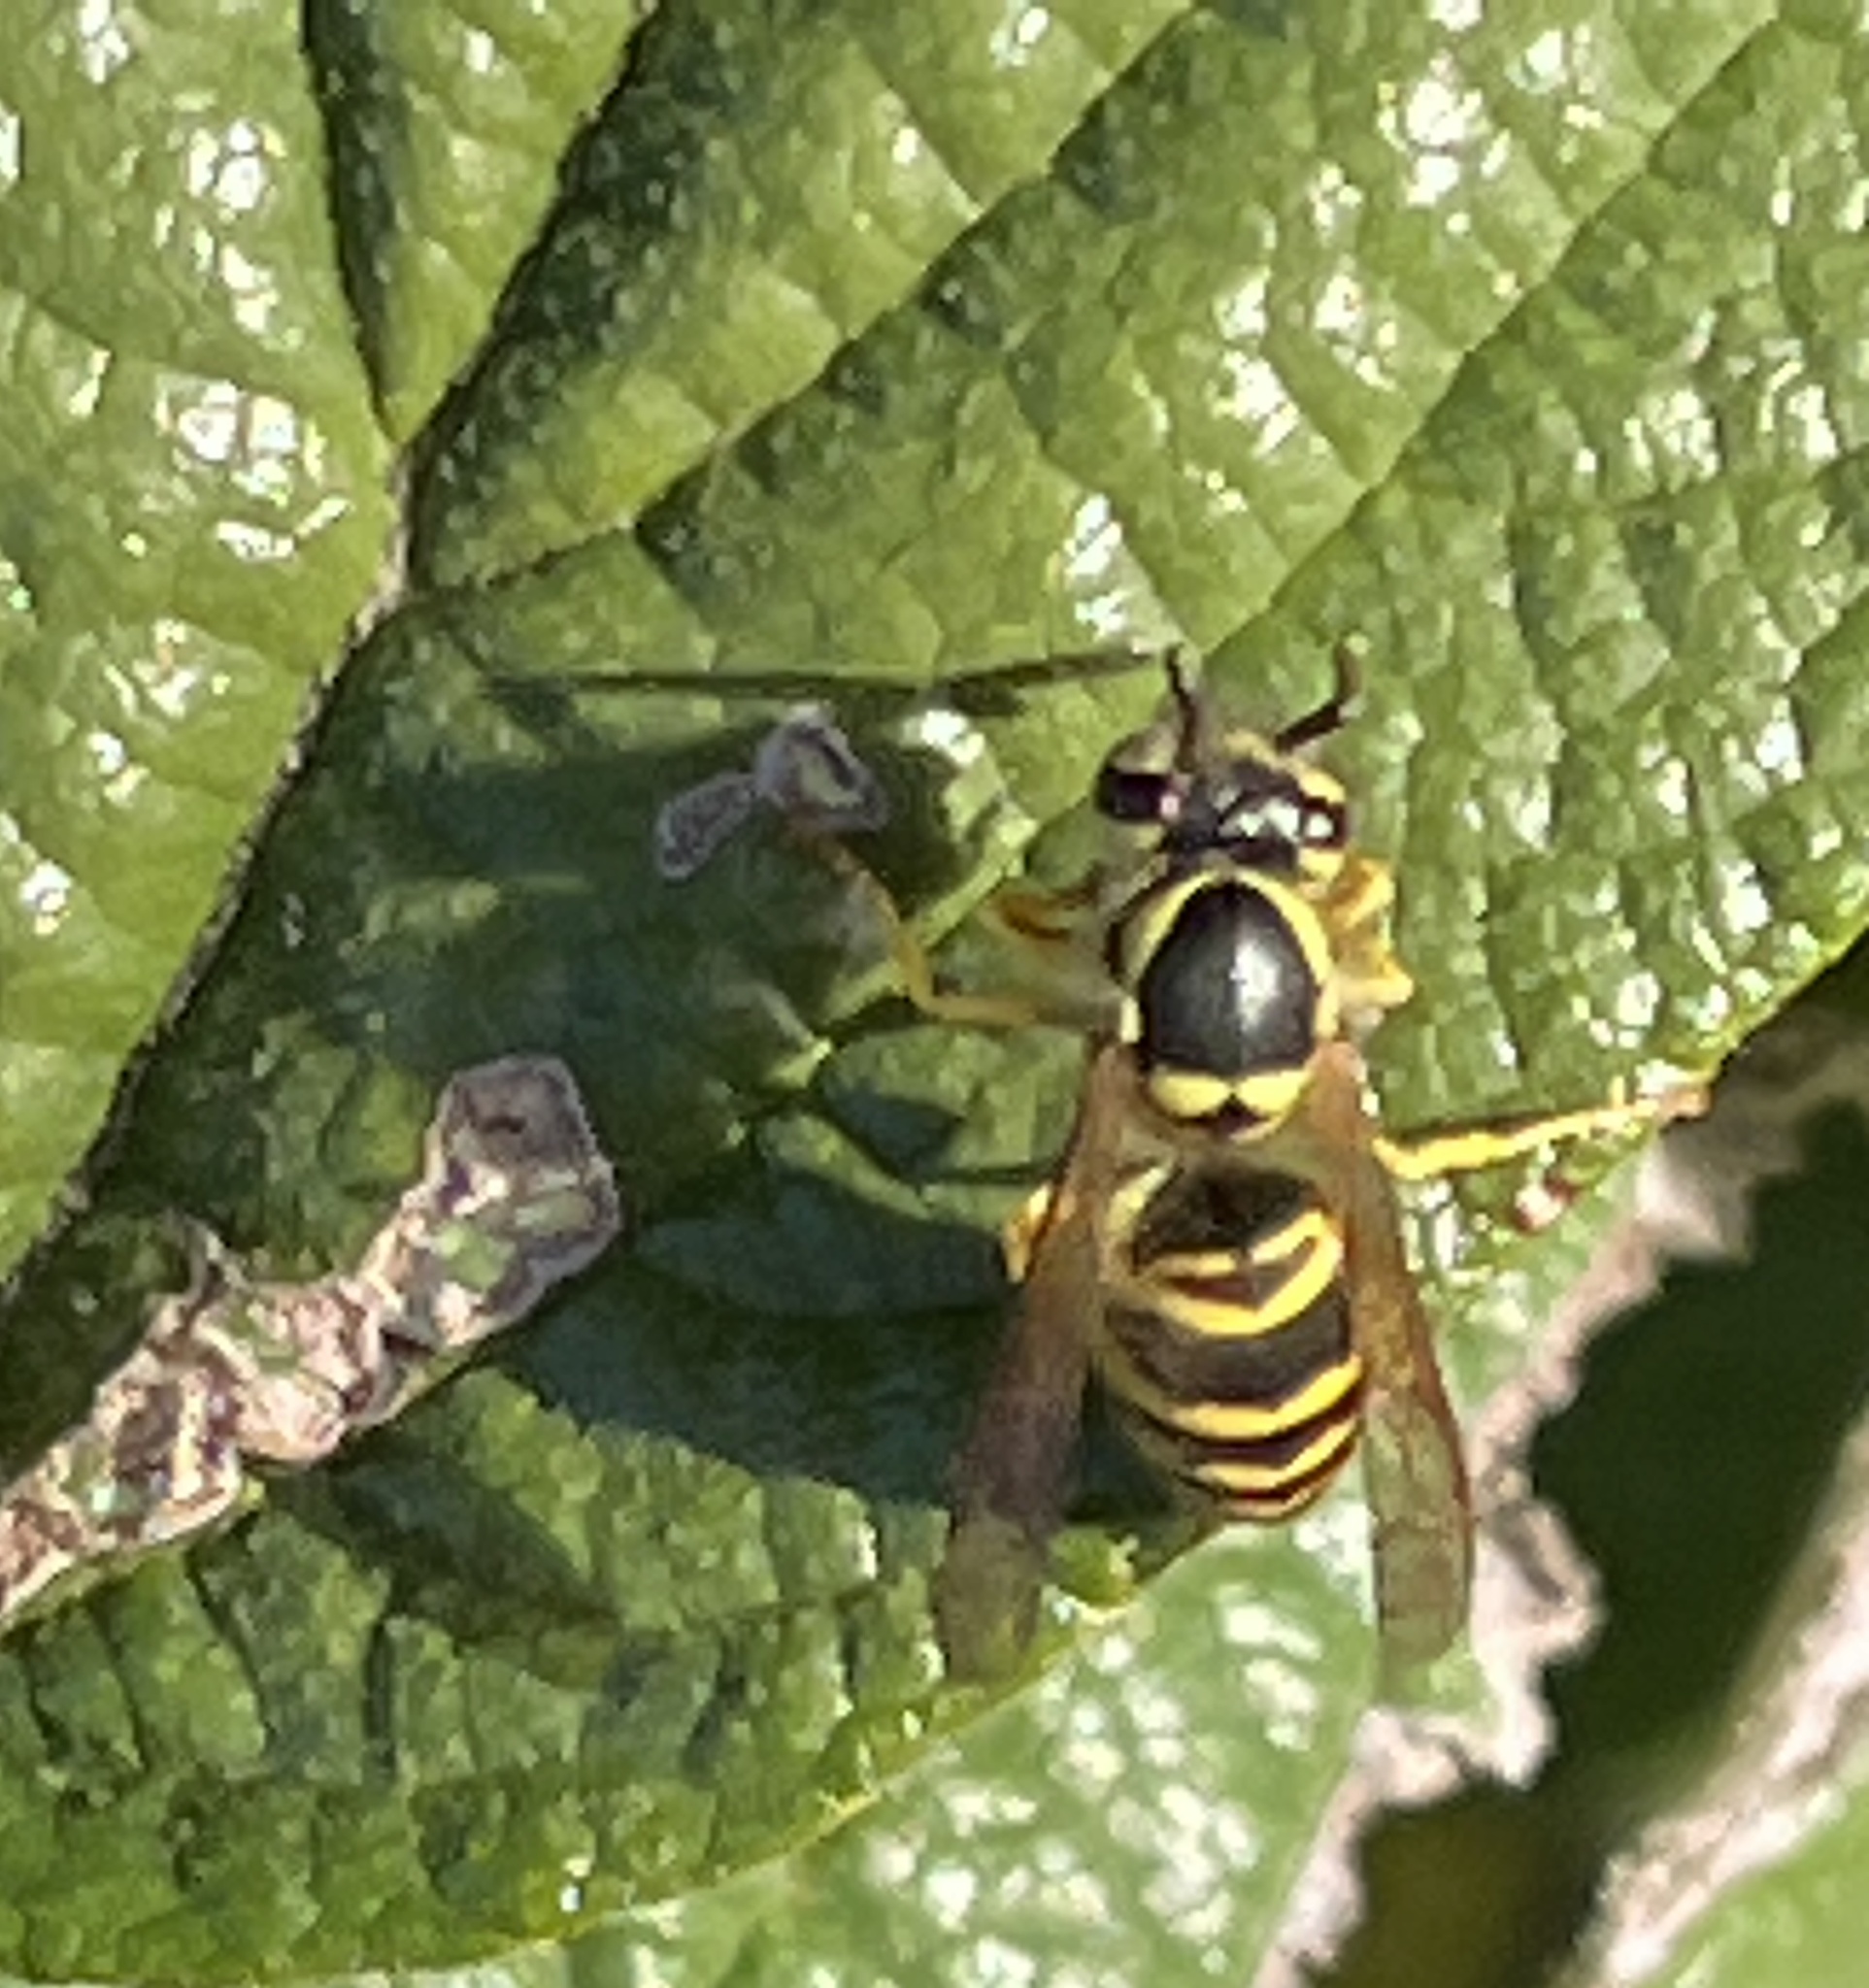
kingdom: Animalia
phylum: Arthropoda
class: Insecta
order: Hymenoptera
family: Vespidae
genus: Vespula
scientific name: Vespula maculifrons
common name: Eastern yellowjacket
